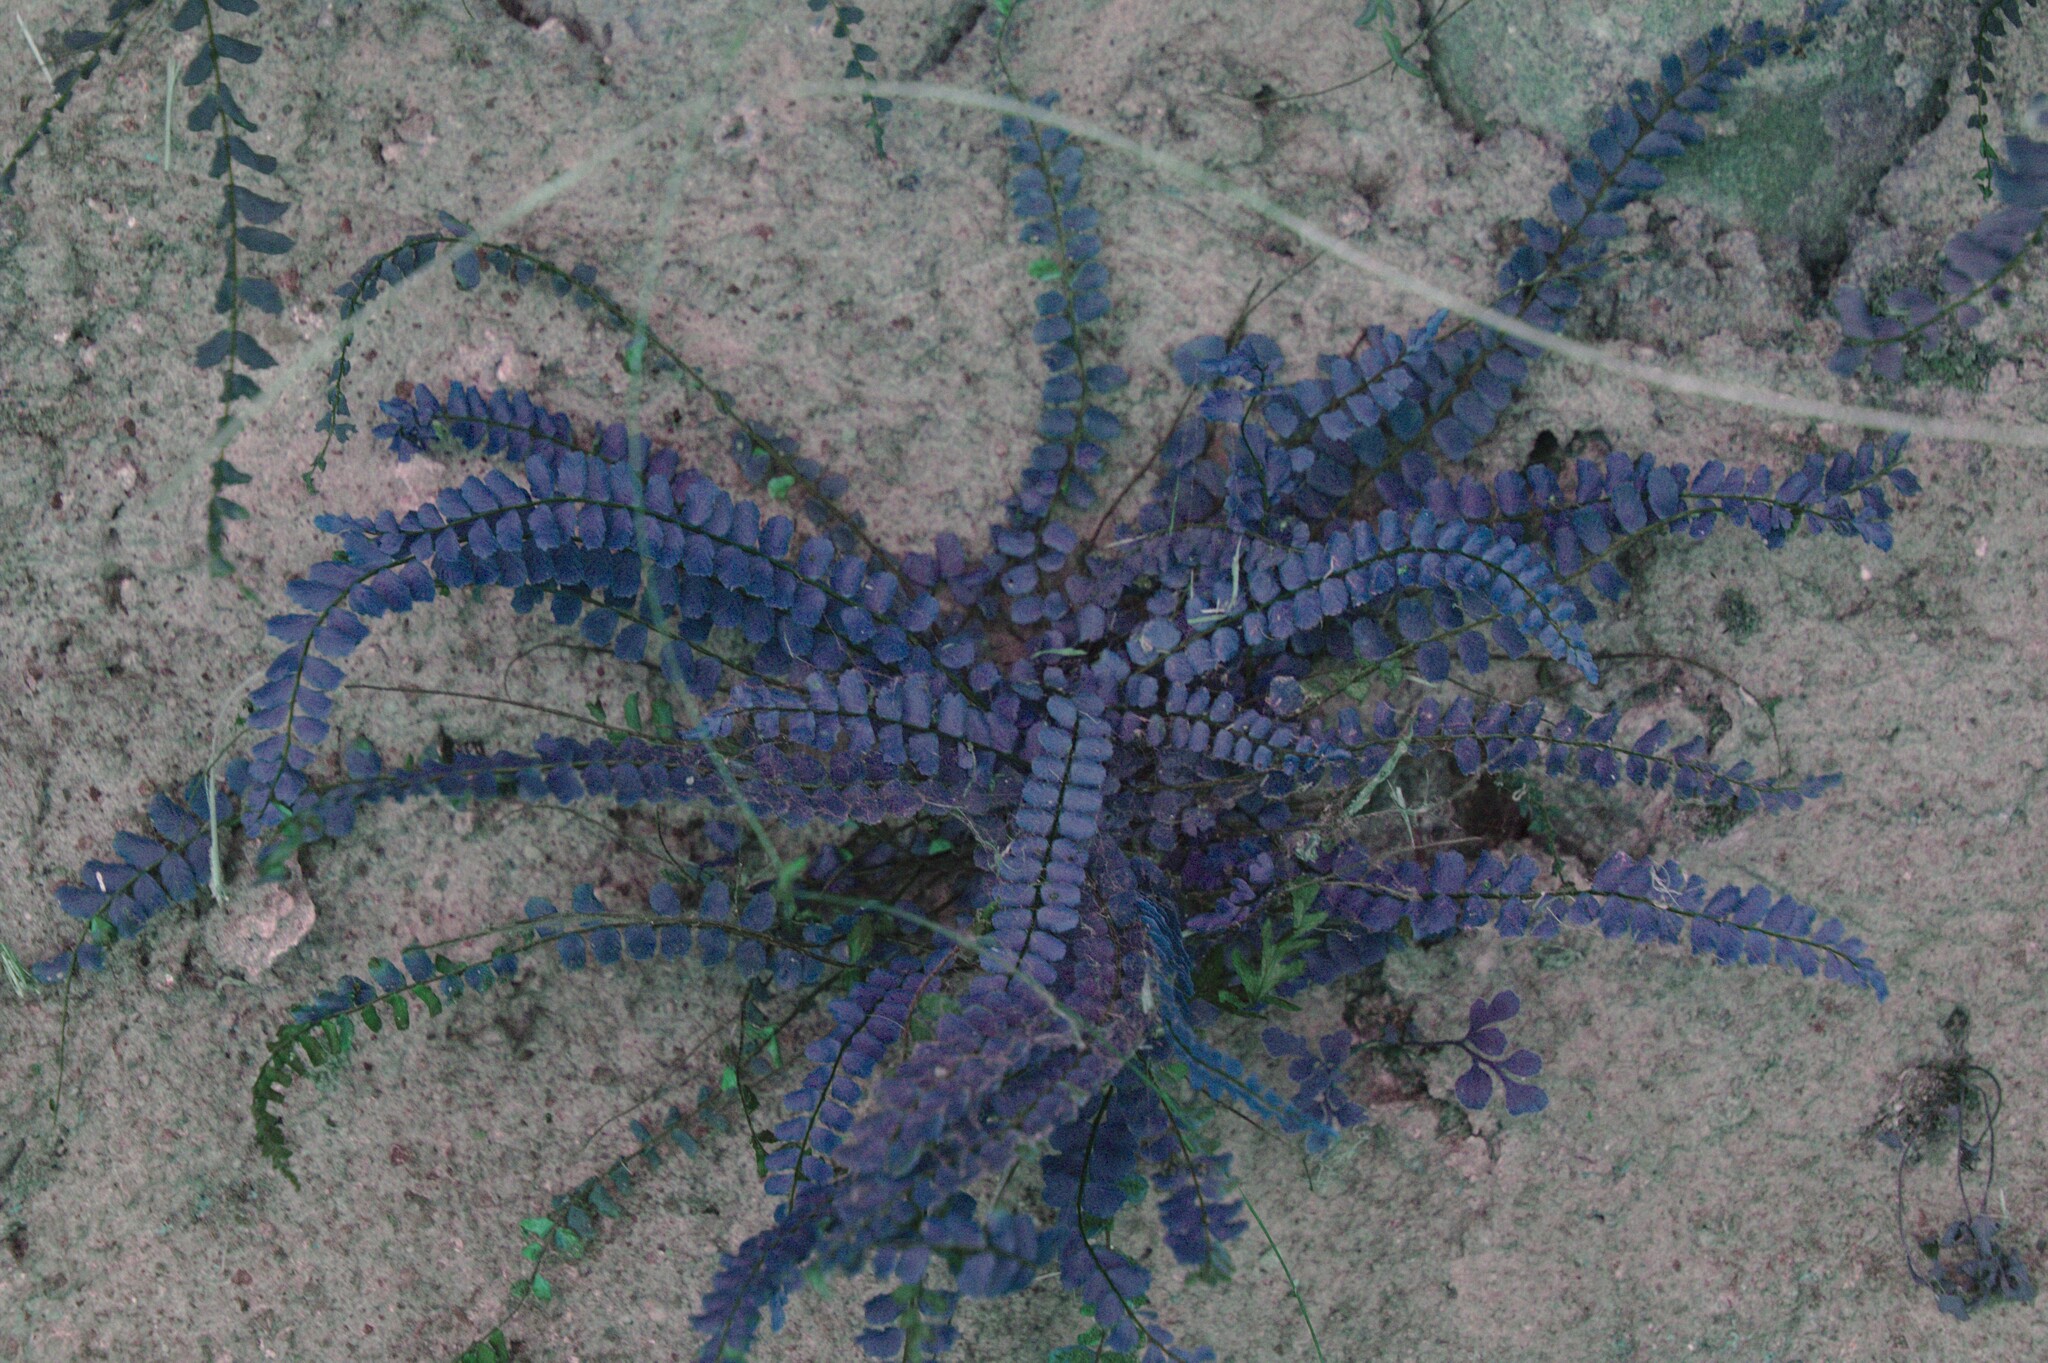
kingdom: Plantae
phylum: Tracheophyta
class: Polypodiopsida
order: Polypodiales
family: Aspleniaceae
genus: Asplenium
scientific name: Asplenium trichomanes
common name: Maidenhair spleenwort
